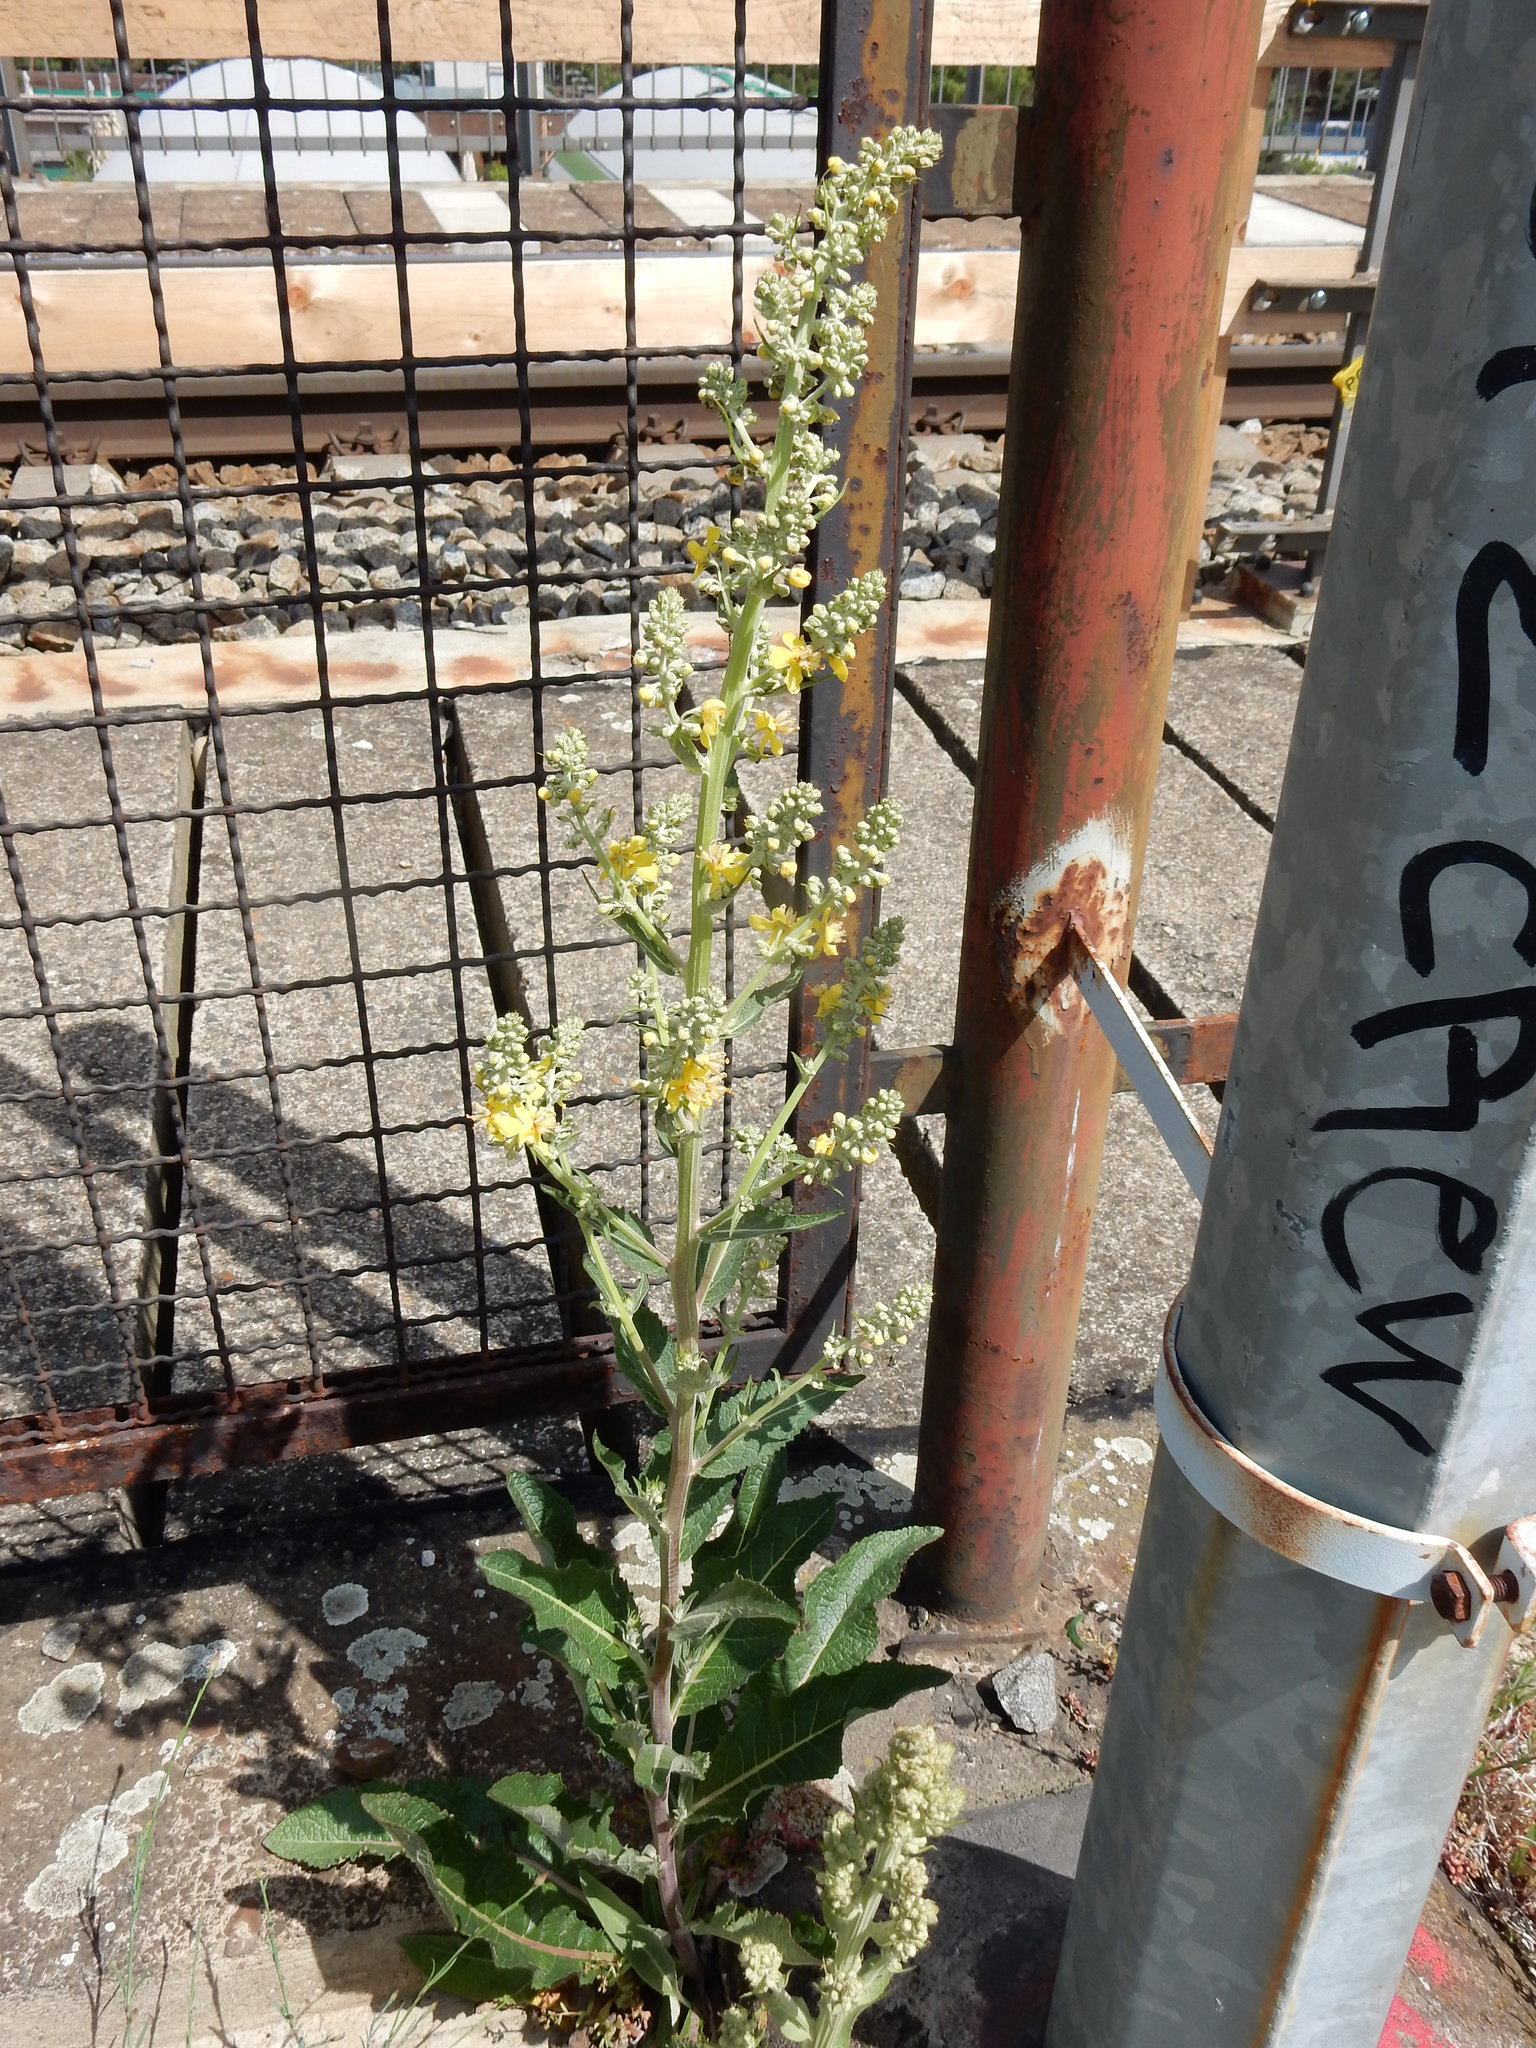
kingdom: Plantae
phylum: Tracheophyta
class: Magnoliopsida
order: Lamiales
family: Scrophulariaceae
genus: Verbascum
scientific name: Verbascum lychnitis
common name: White mullein
